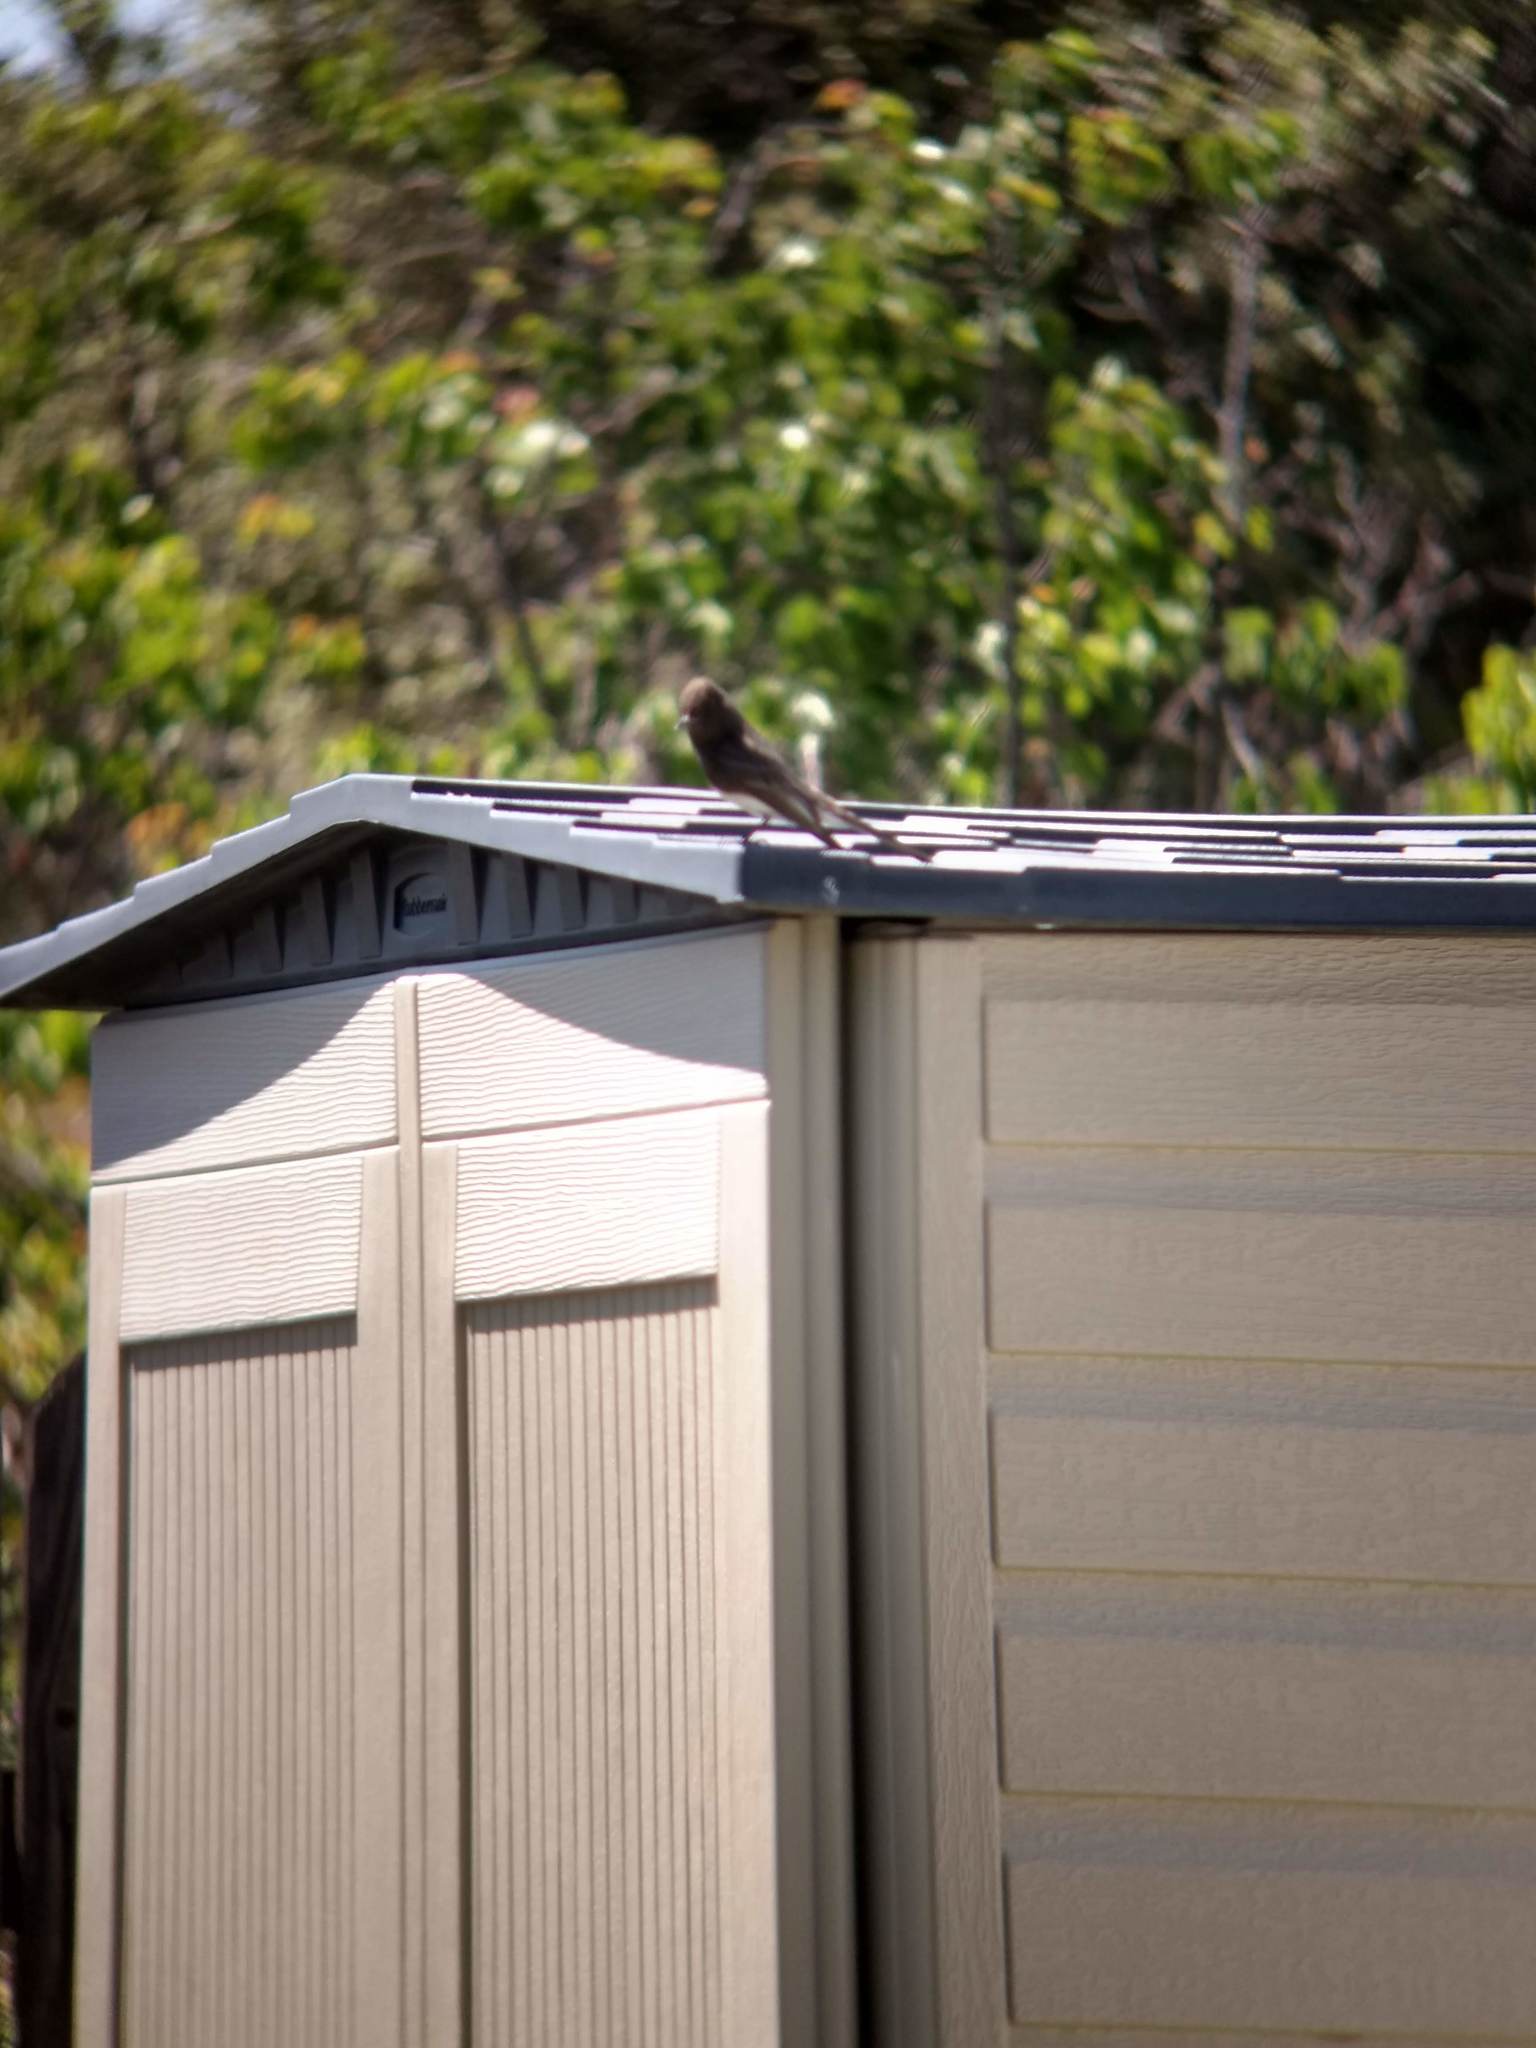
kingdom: Animalia
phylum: Chordata
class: Aves
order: Passeriformes
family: Tyrannidae
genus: Sayornis
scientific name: Sayornis nigricans
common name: Black phoebe
